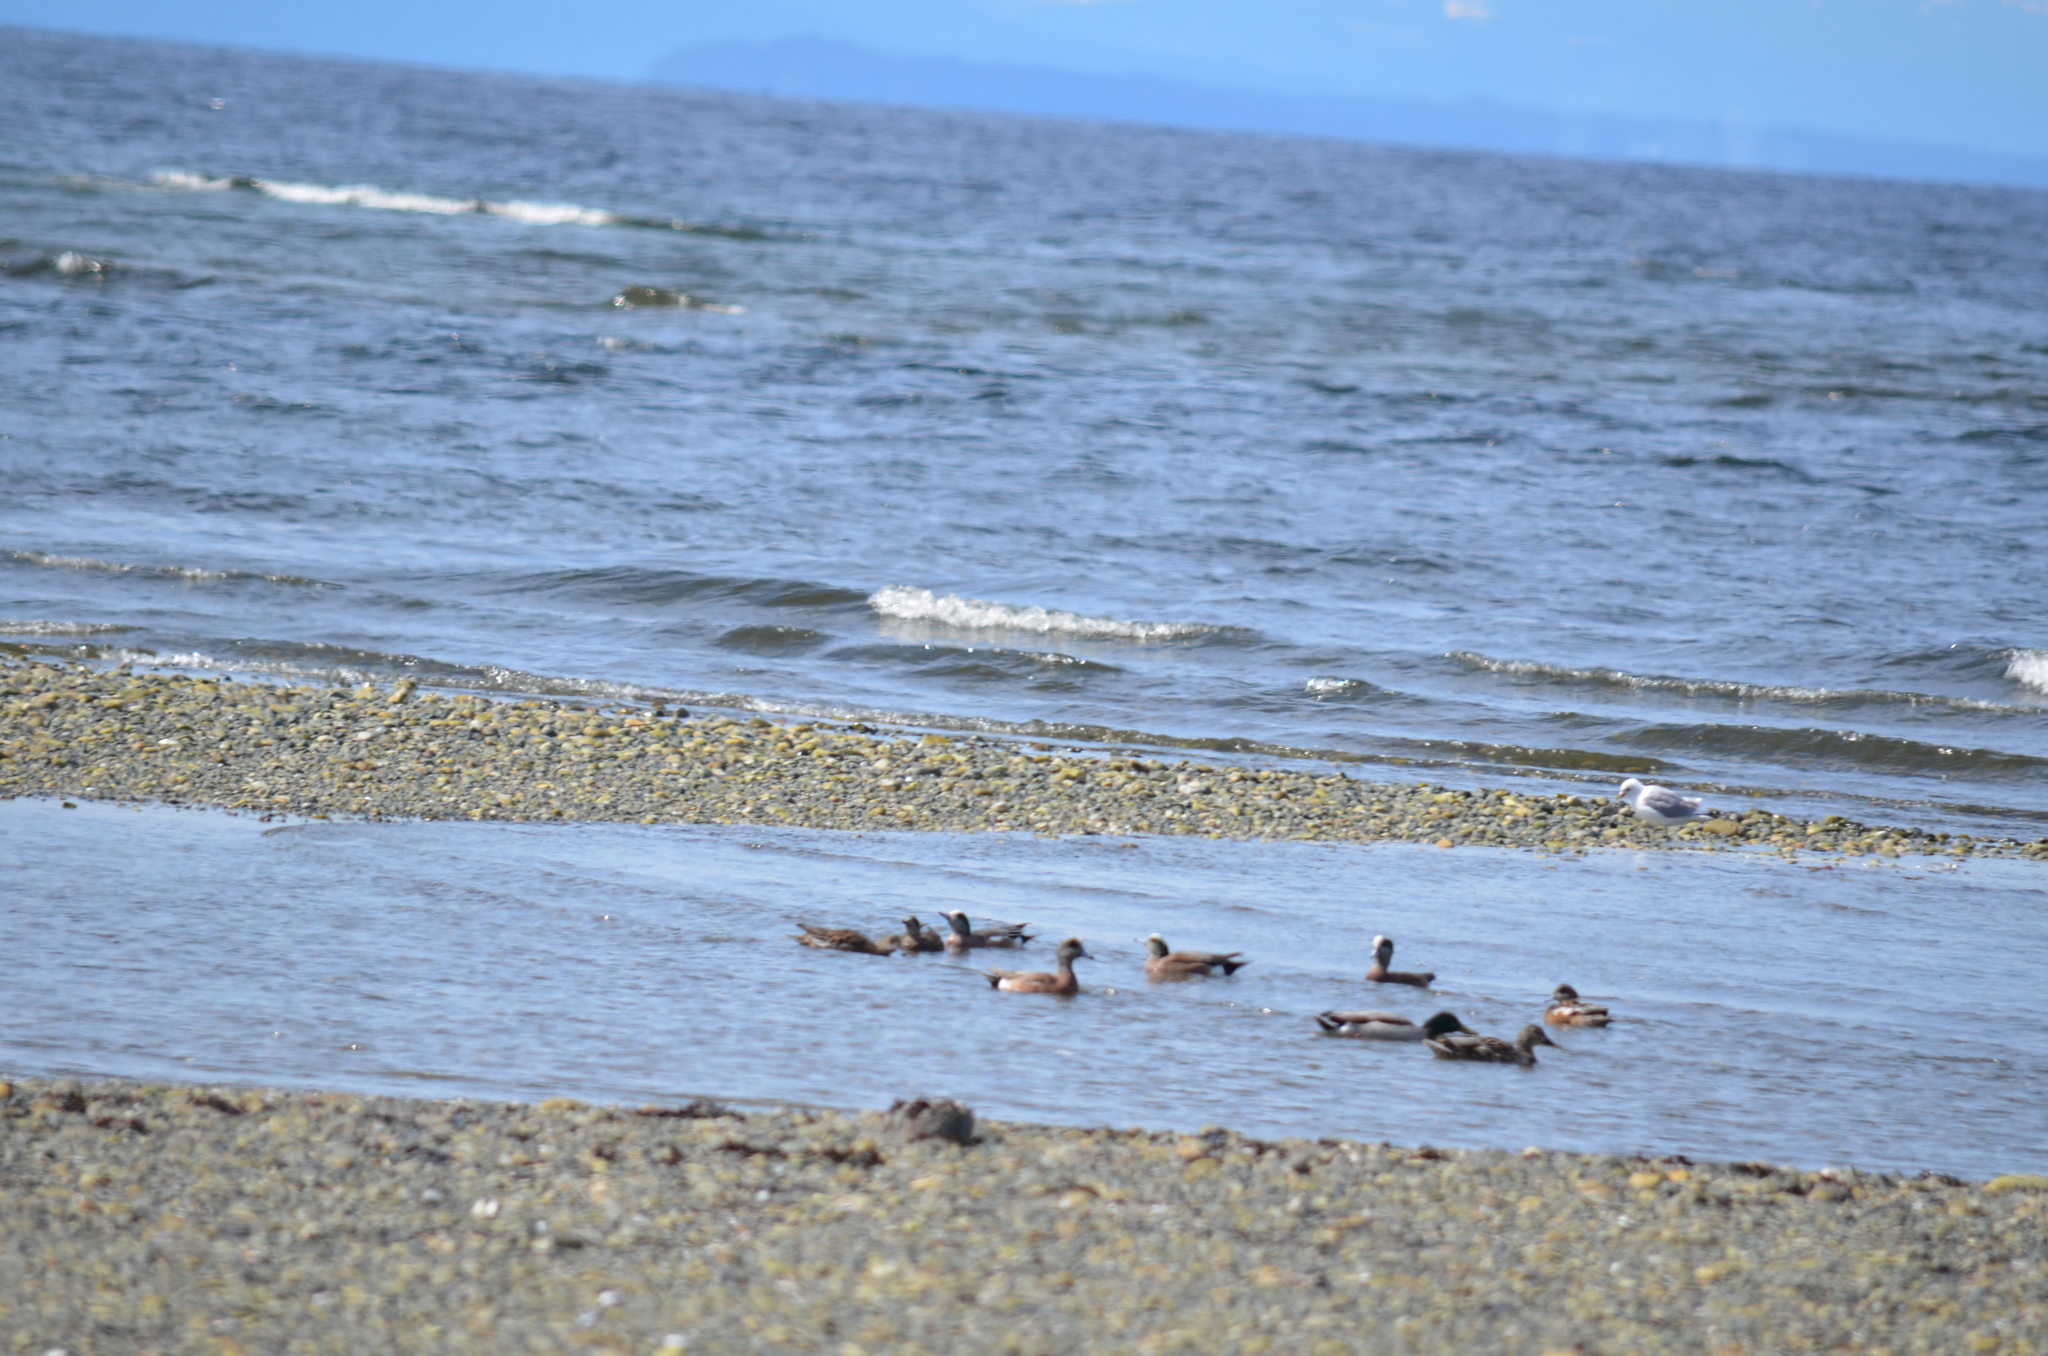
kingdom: Animalia
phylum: Chordata
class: Aves
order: Anseriformes
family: Anatidae
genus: Mareca
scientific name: Mareca americana
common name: American wigeon
